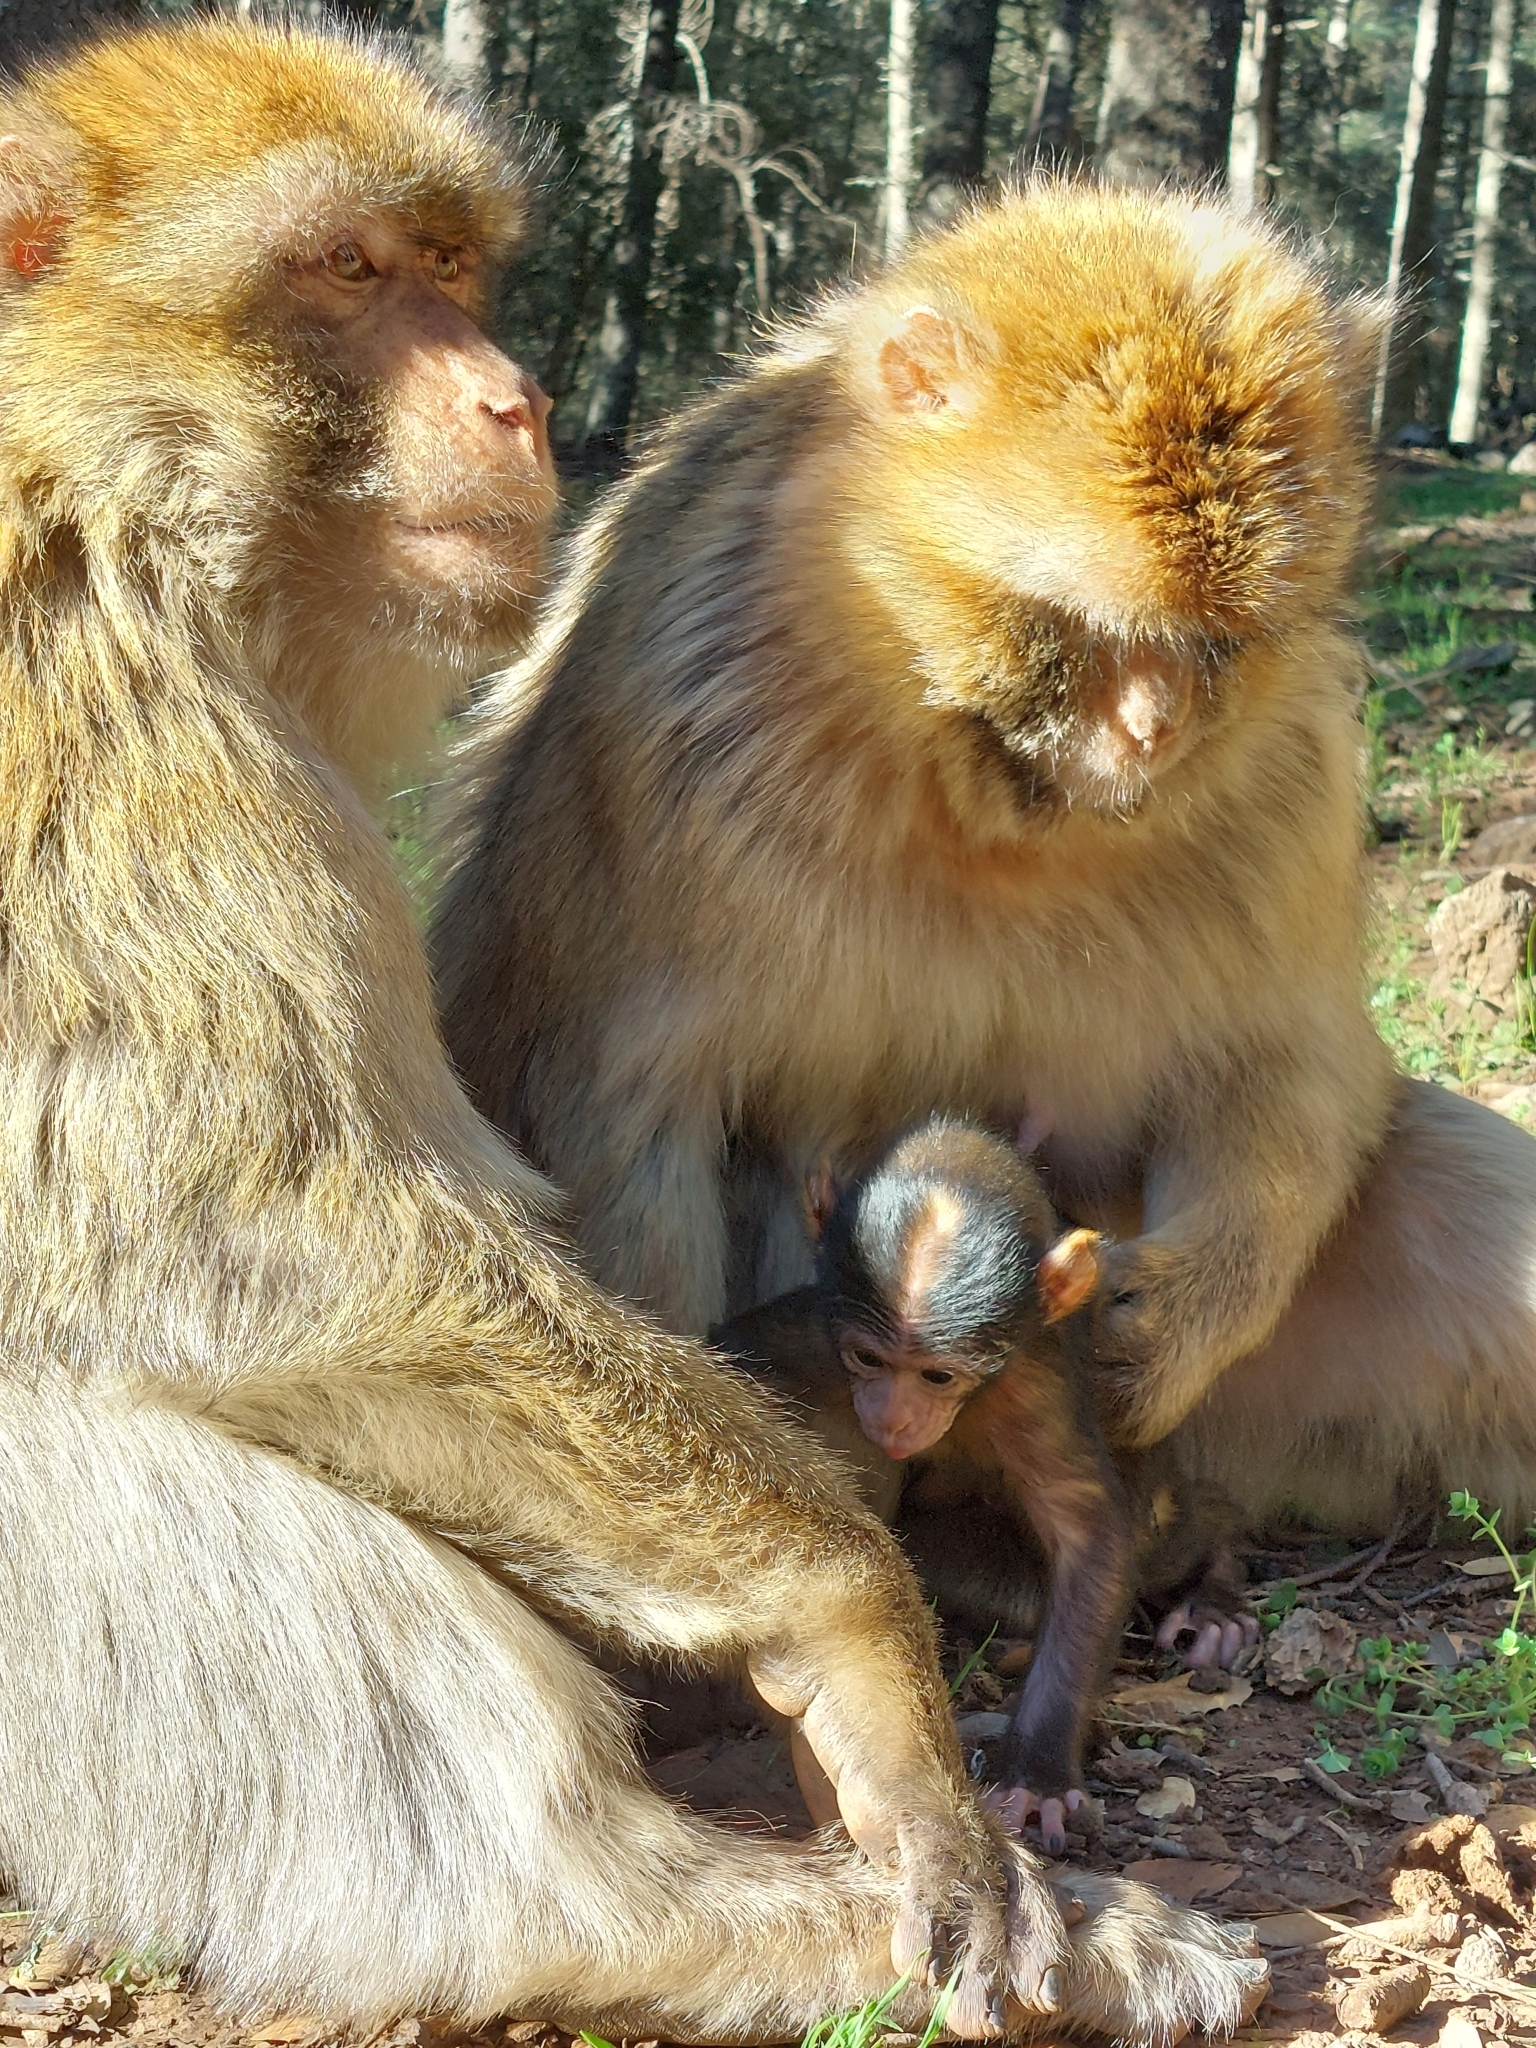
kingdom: Animalia
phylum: Chordata
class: Mammalia
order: Primates
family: Cercopithecidae
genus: Macaca
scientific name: Macaca sylvanus
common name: Barbary macaque
